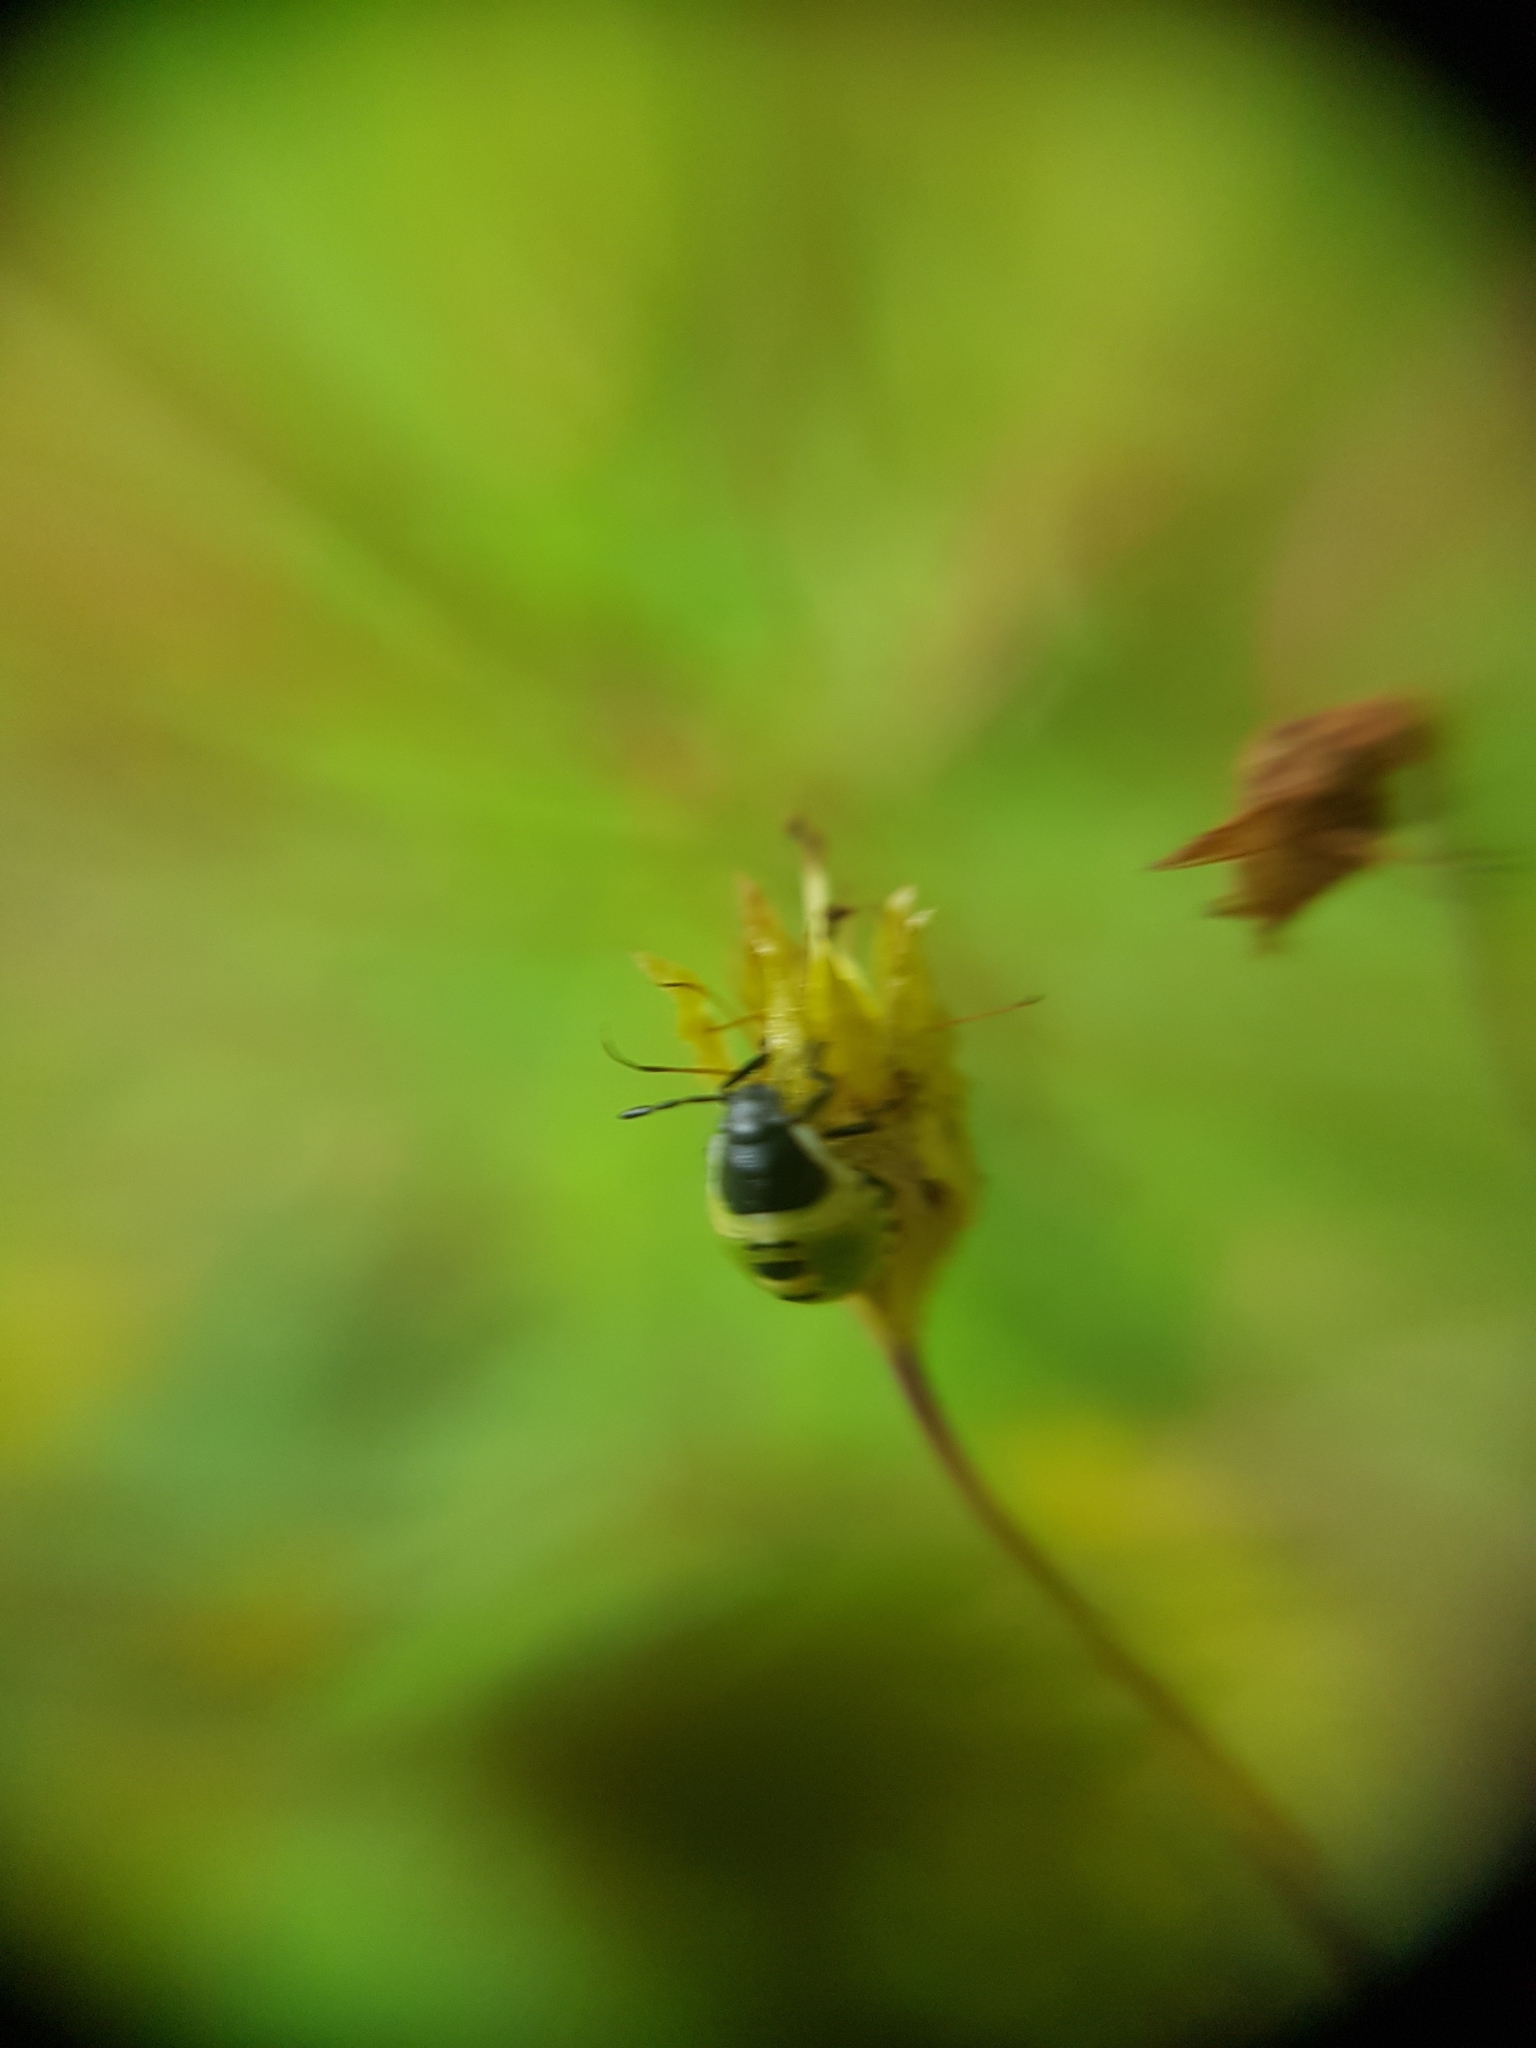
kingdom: Animalia
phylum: Arthropoda
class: Insecta
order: Hemiptera
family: Pentatomidae
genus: Palomena
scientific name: Palomena prasina
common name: Green shieldbug
